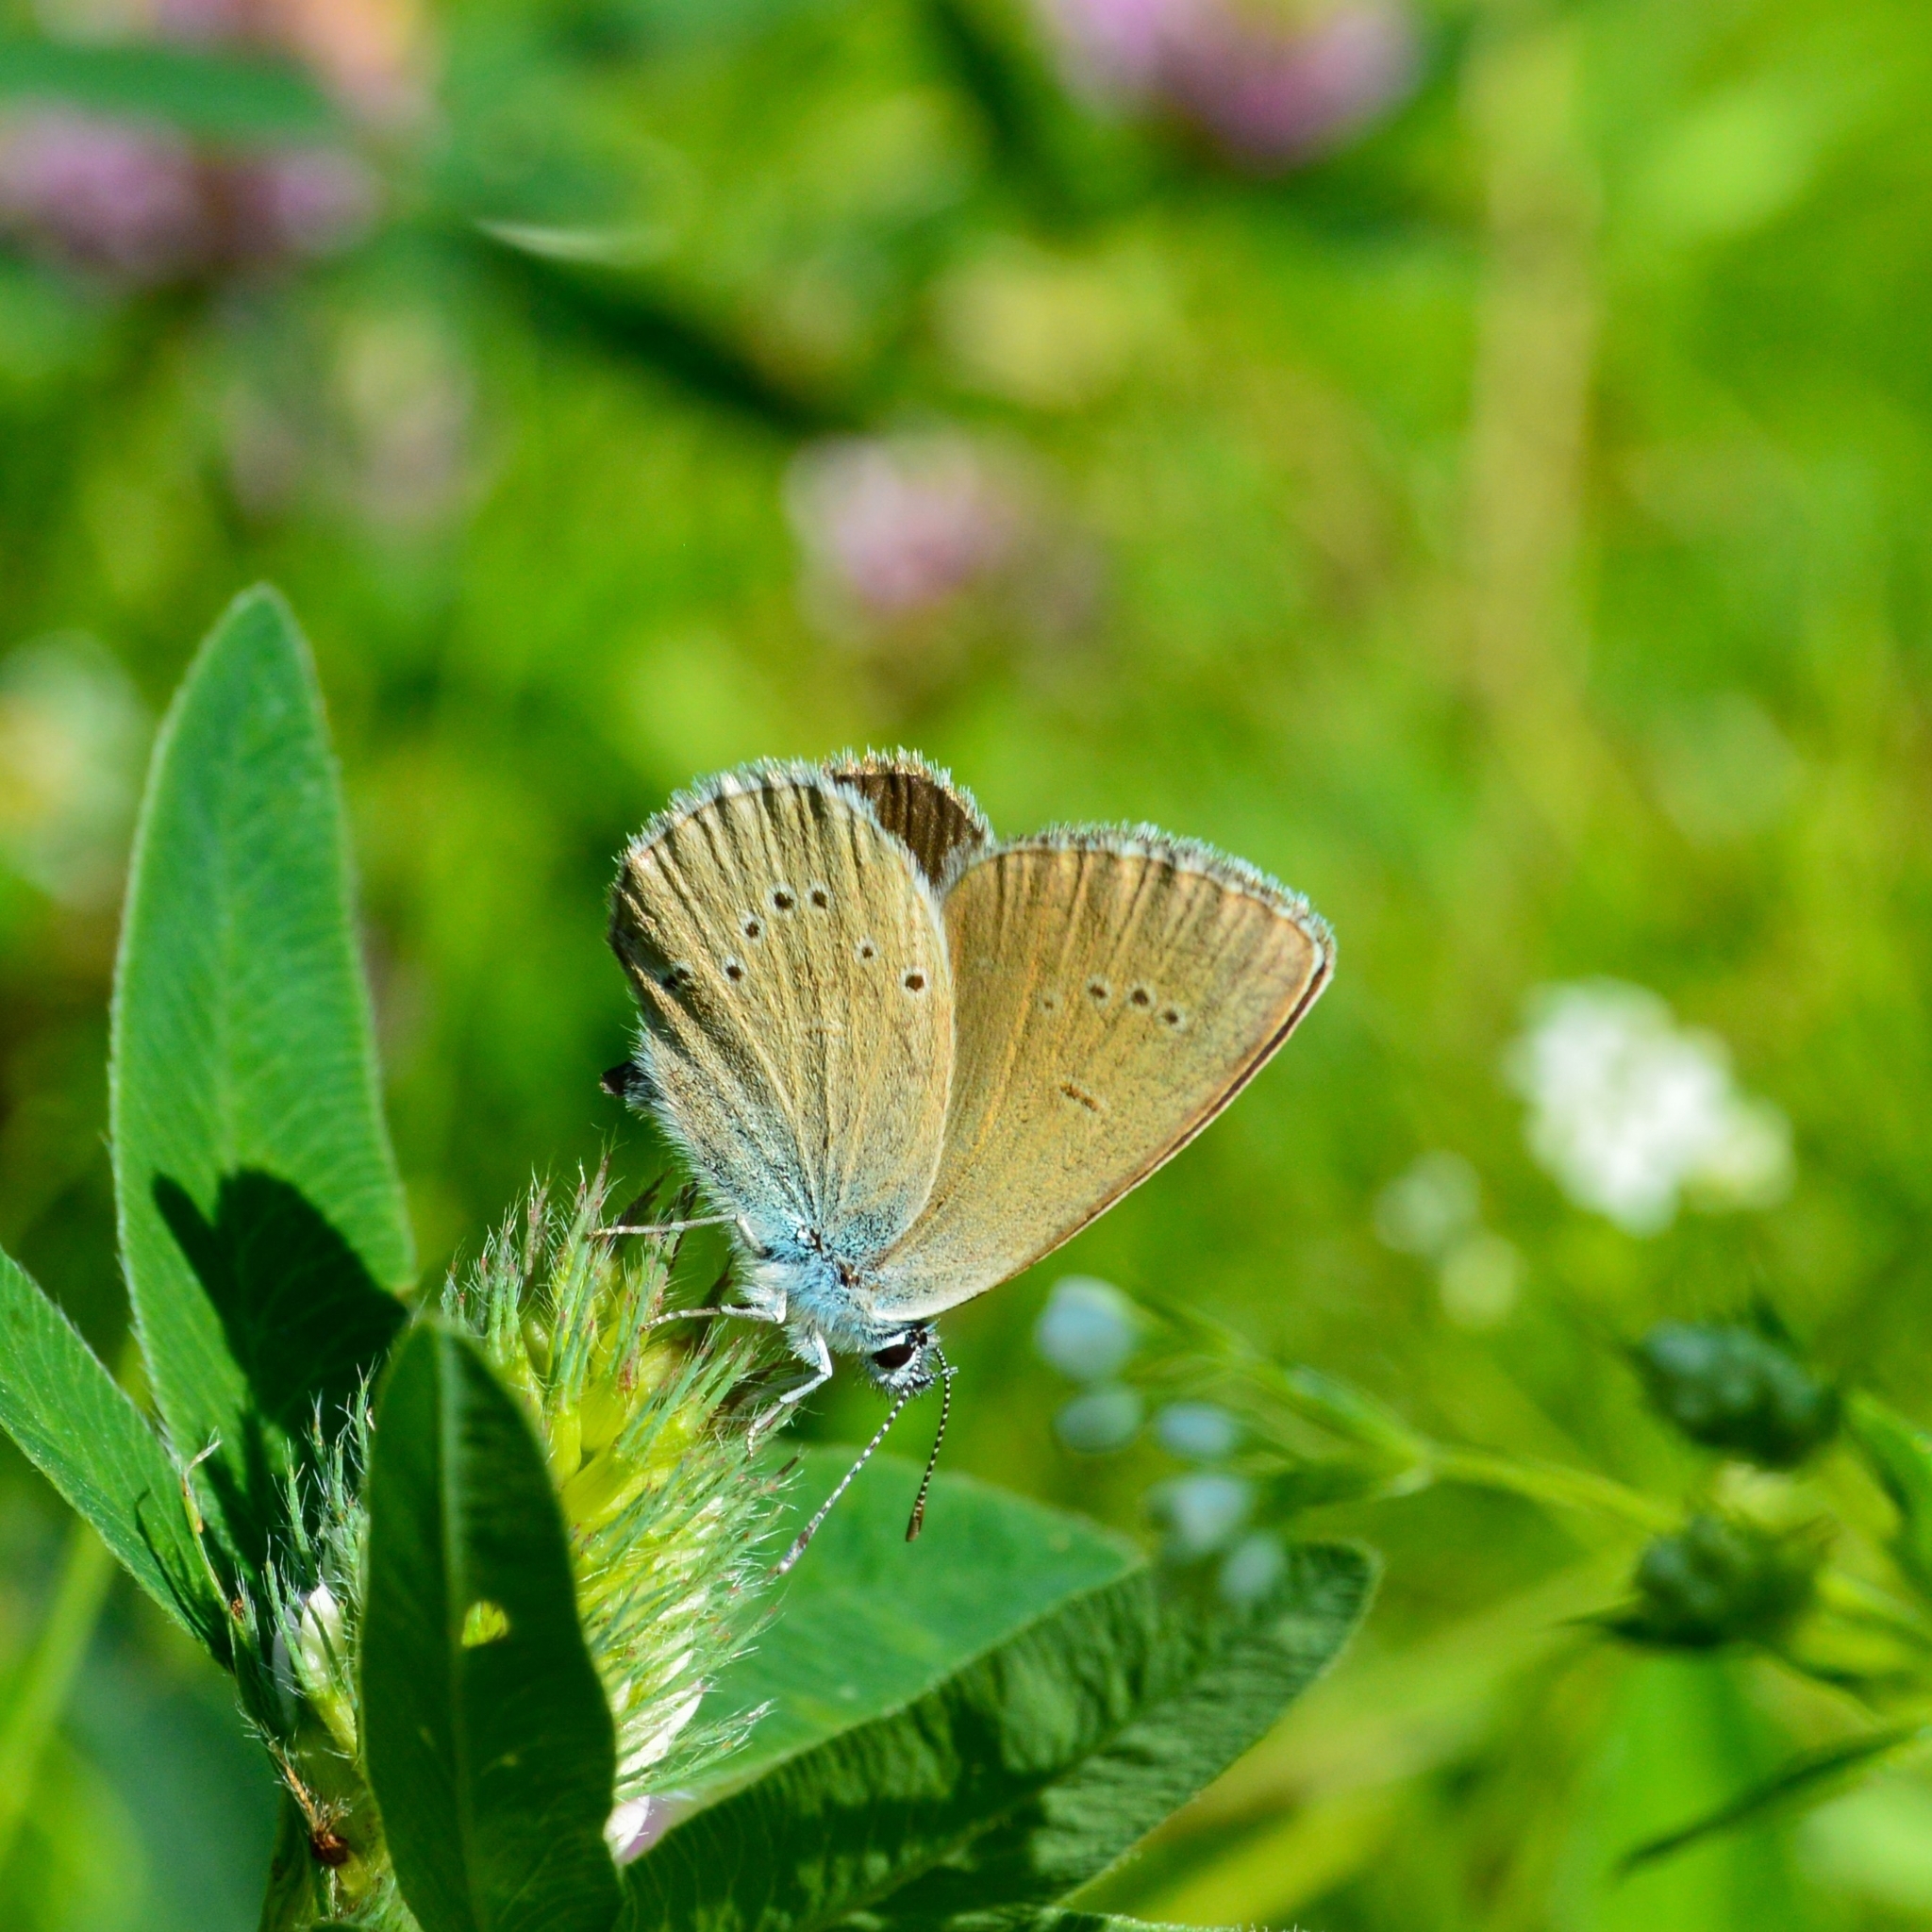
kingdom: Animalia
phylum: Arthropoda
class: Insecta
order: Lepidoptera
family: Lycaenidae
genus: Cyaniris
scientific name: Cyaniris semiargus
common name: Mazarine blue
